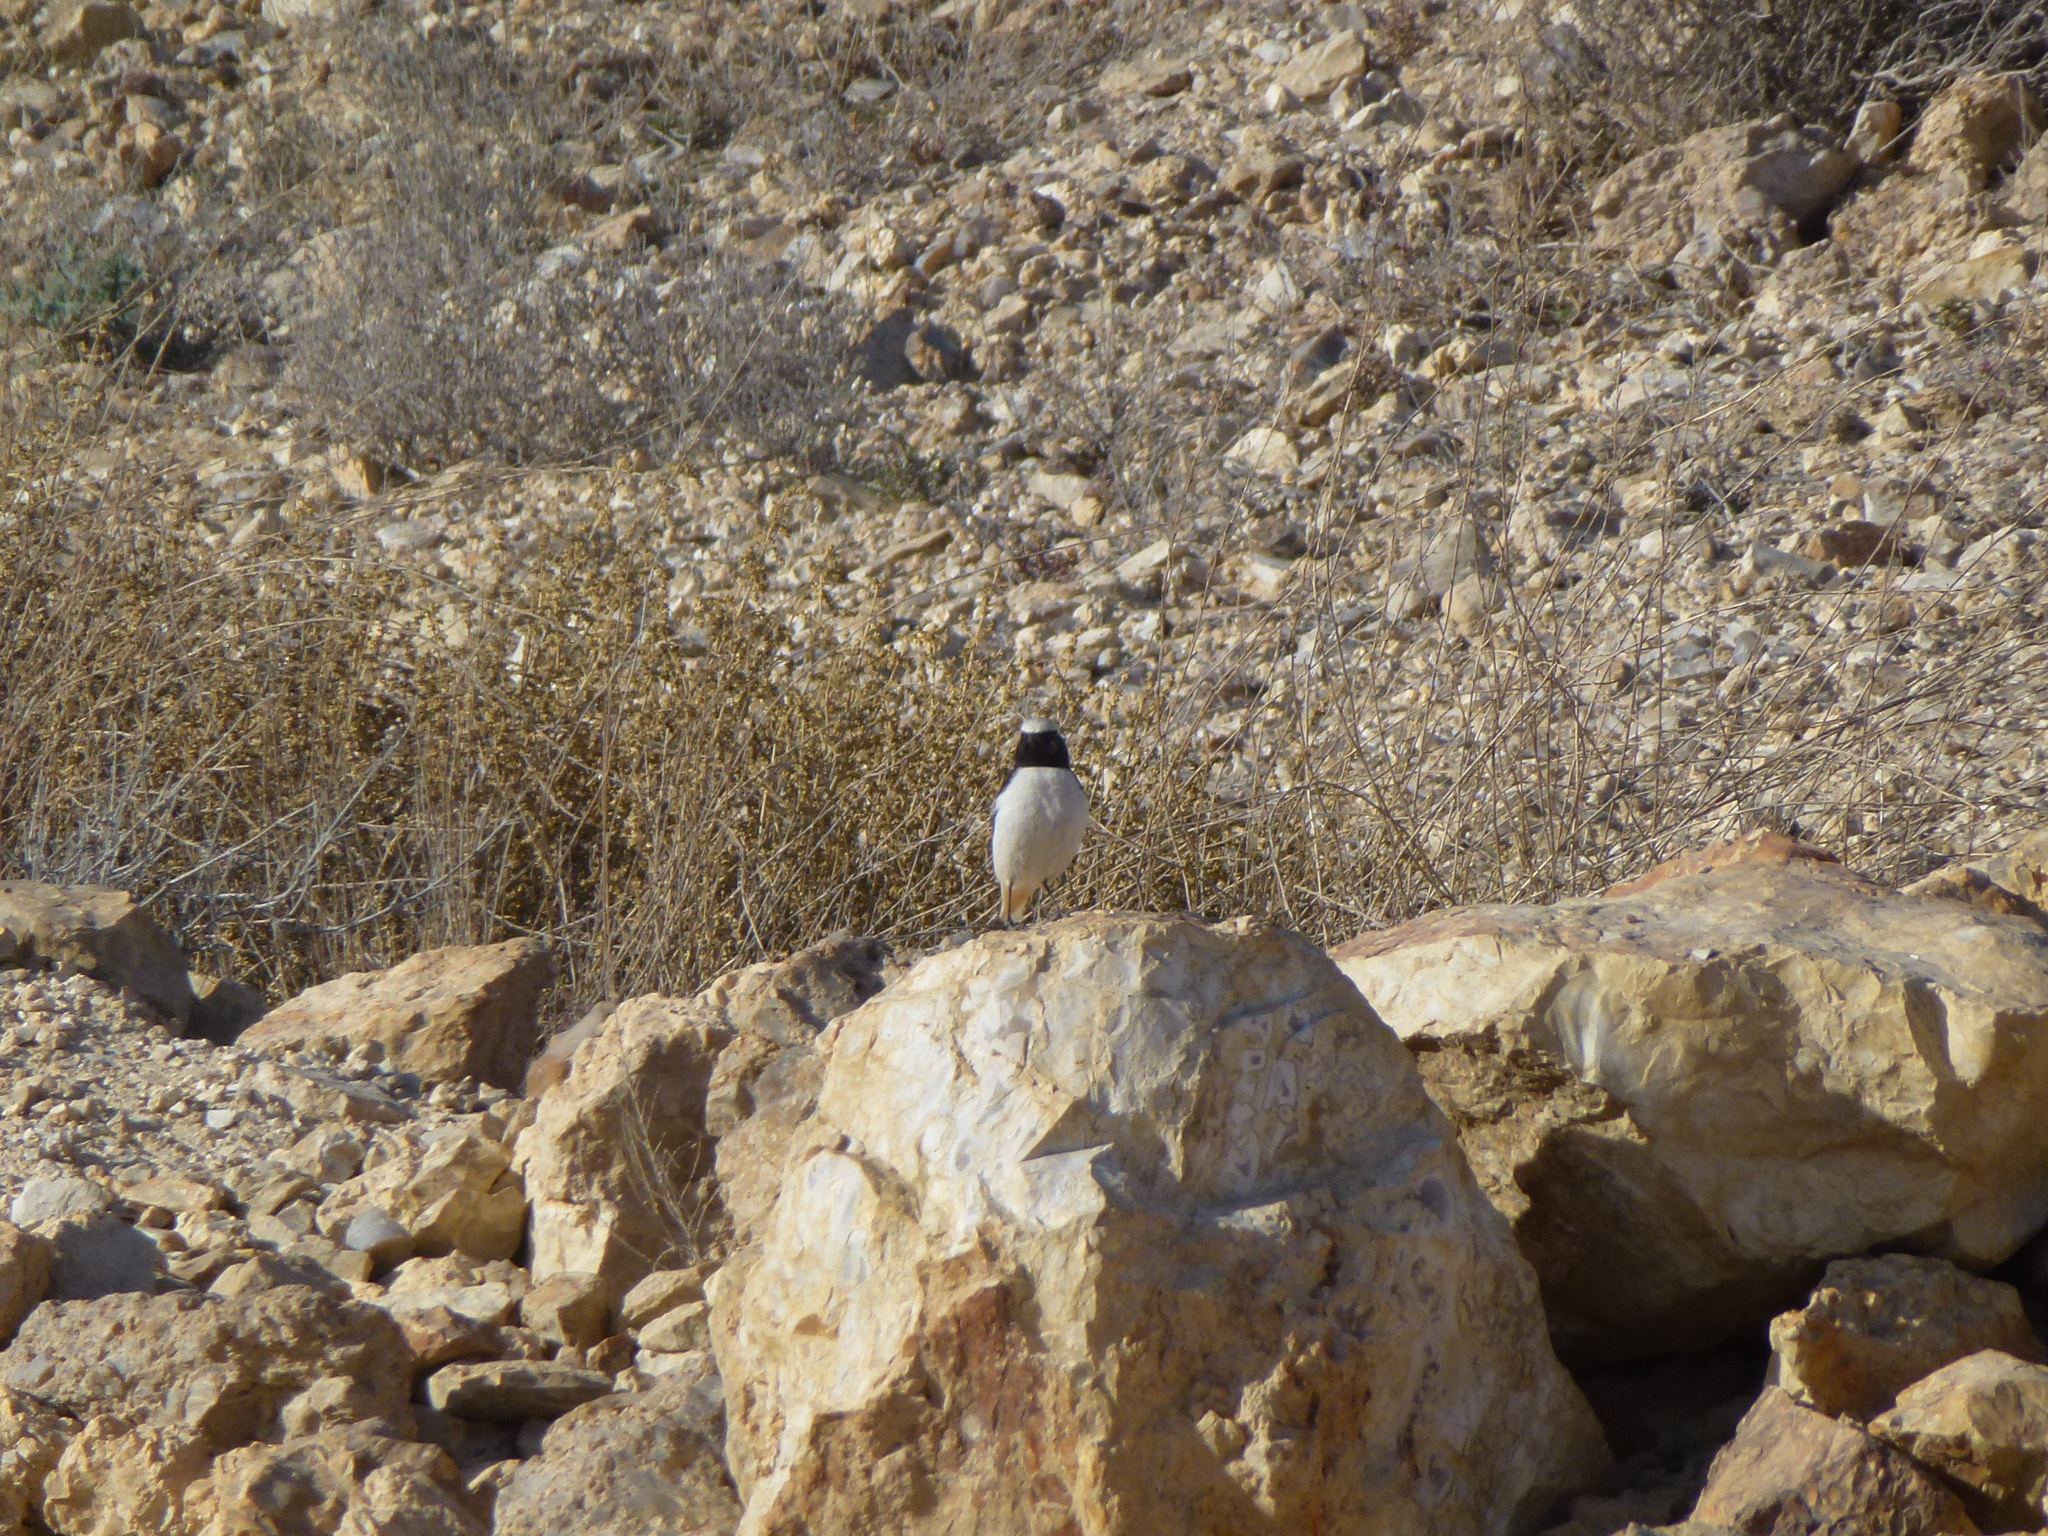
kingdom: Animalia
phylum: Chordata
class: Aves
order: Passeriformes
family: Muscicapidae
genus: Oenanthe
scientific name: Oenanthe lugens
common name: Mourning wheatear
